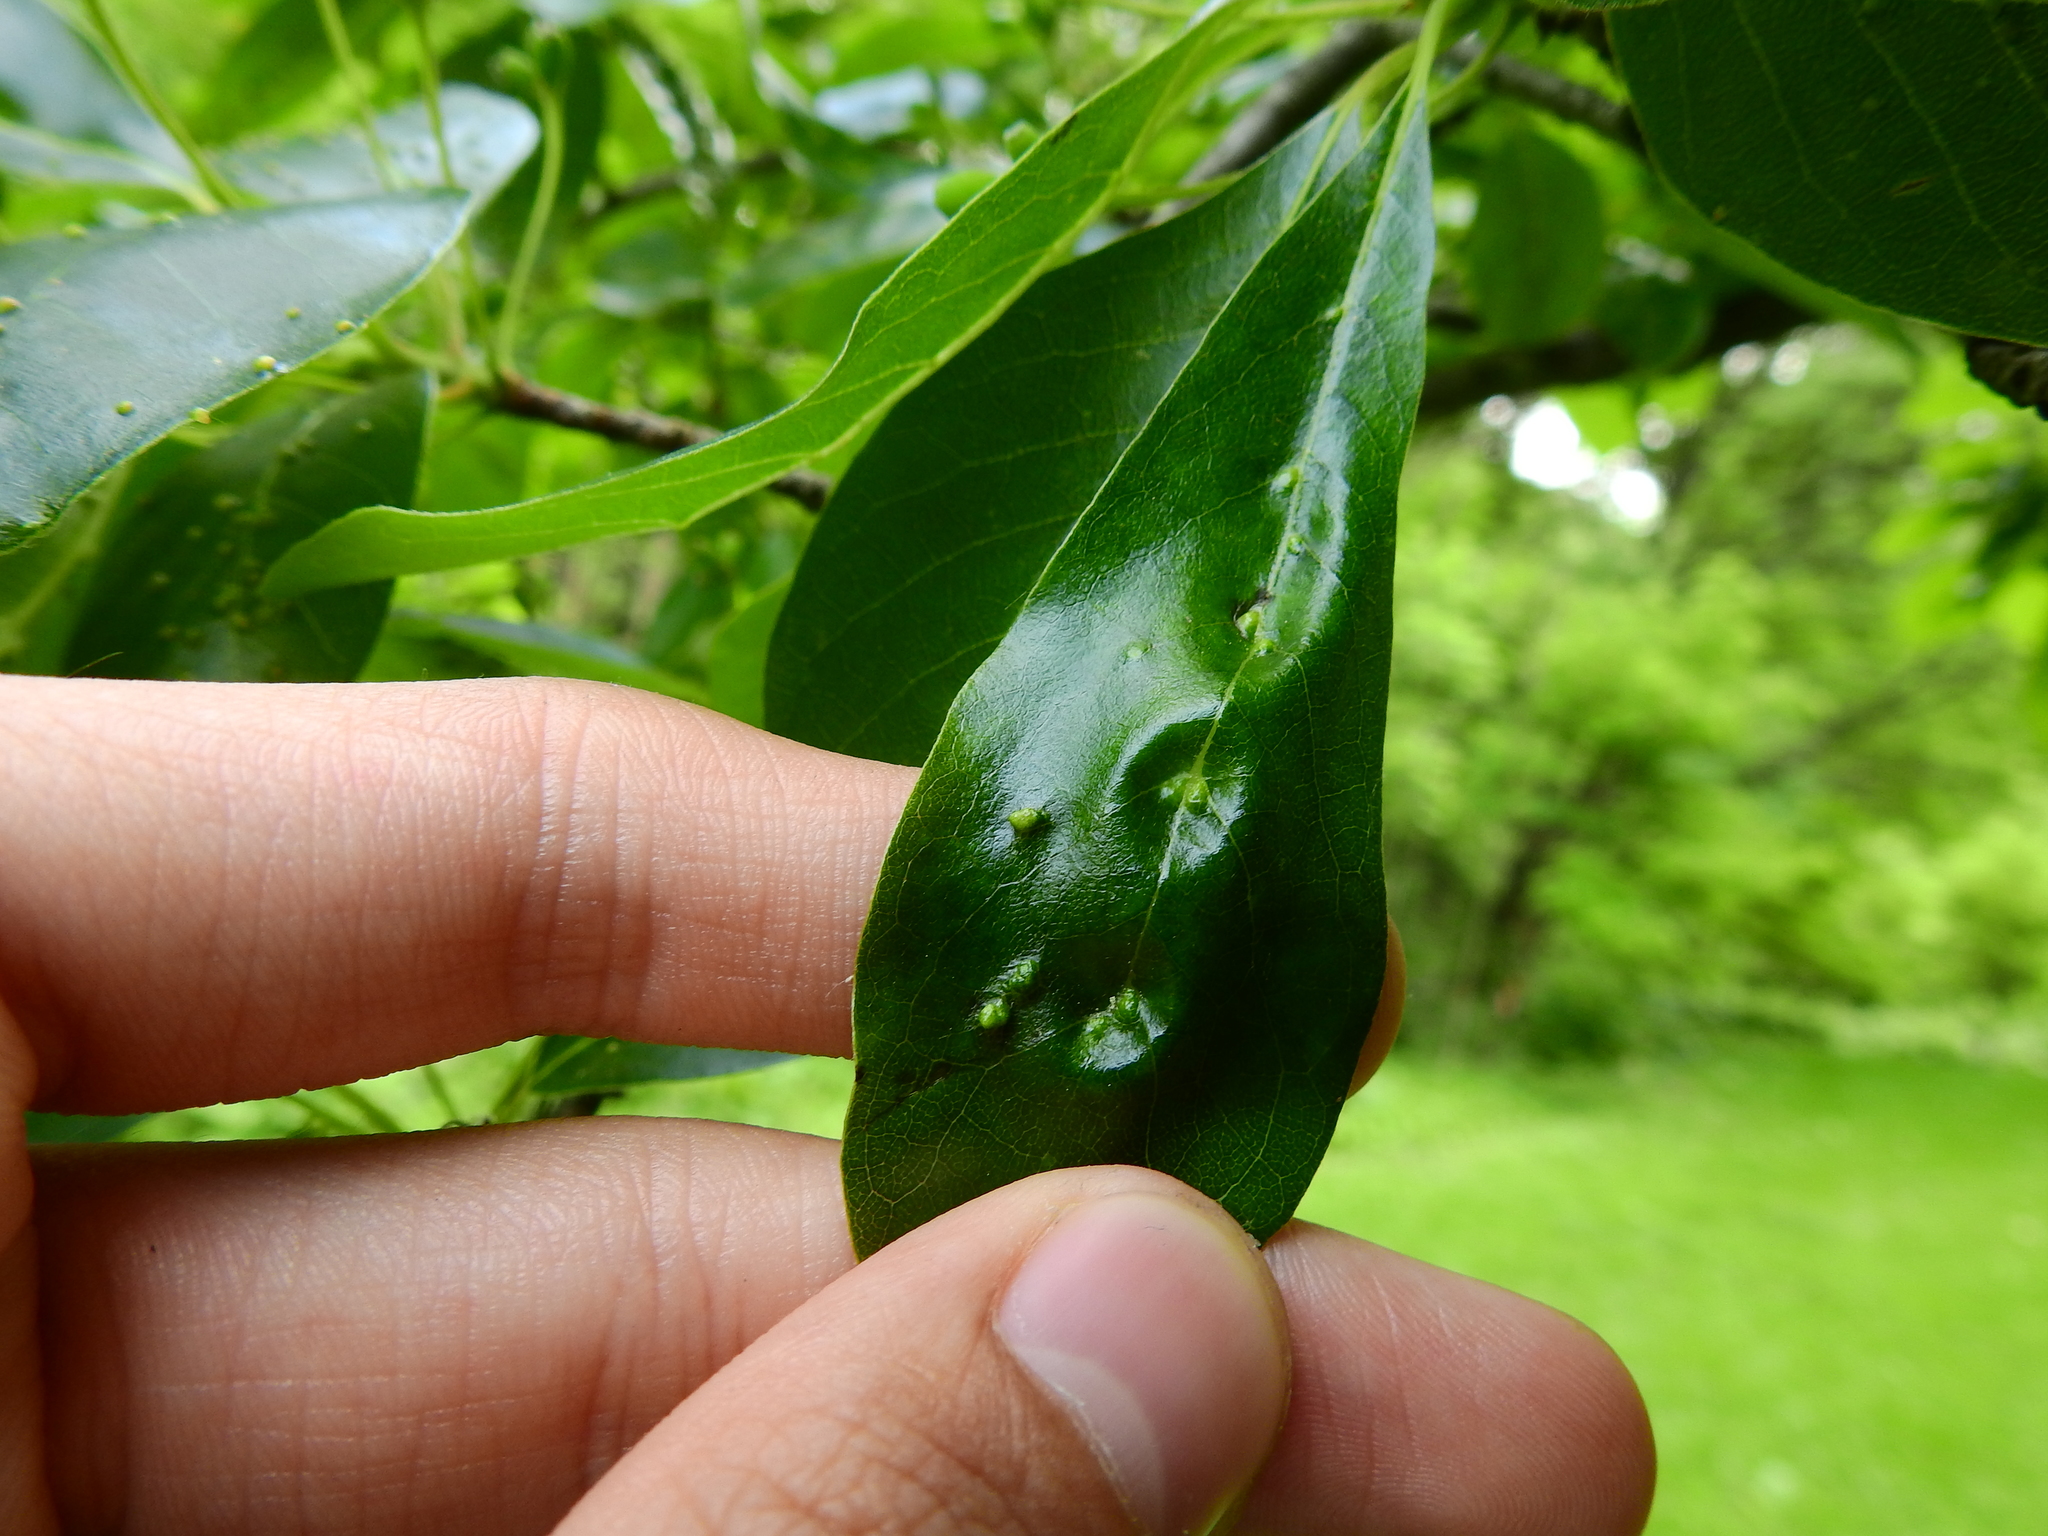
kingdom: Animalia
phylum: Arthropoda
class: Arachnida
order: Trombidiformes
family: Eriophyidae
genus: Cenalox
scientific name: Cenalox
